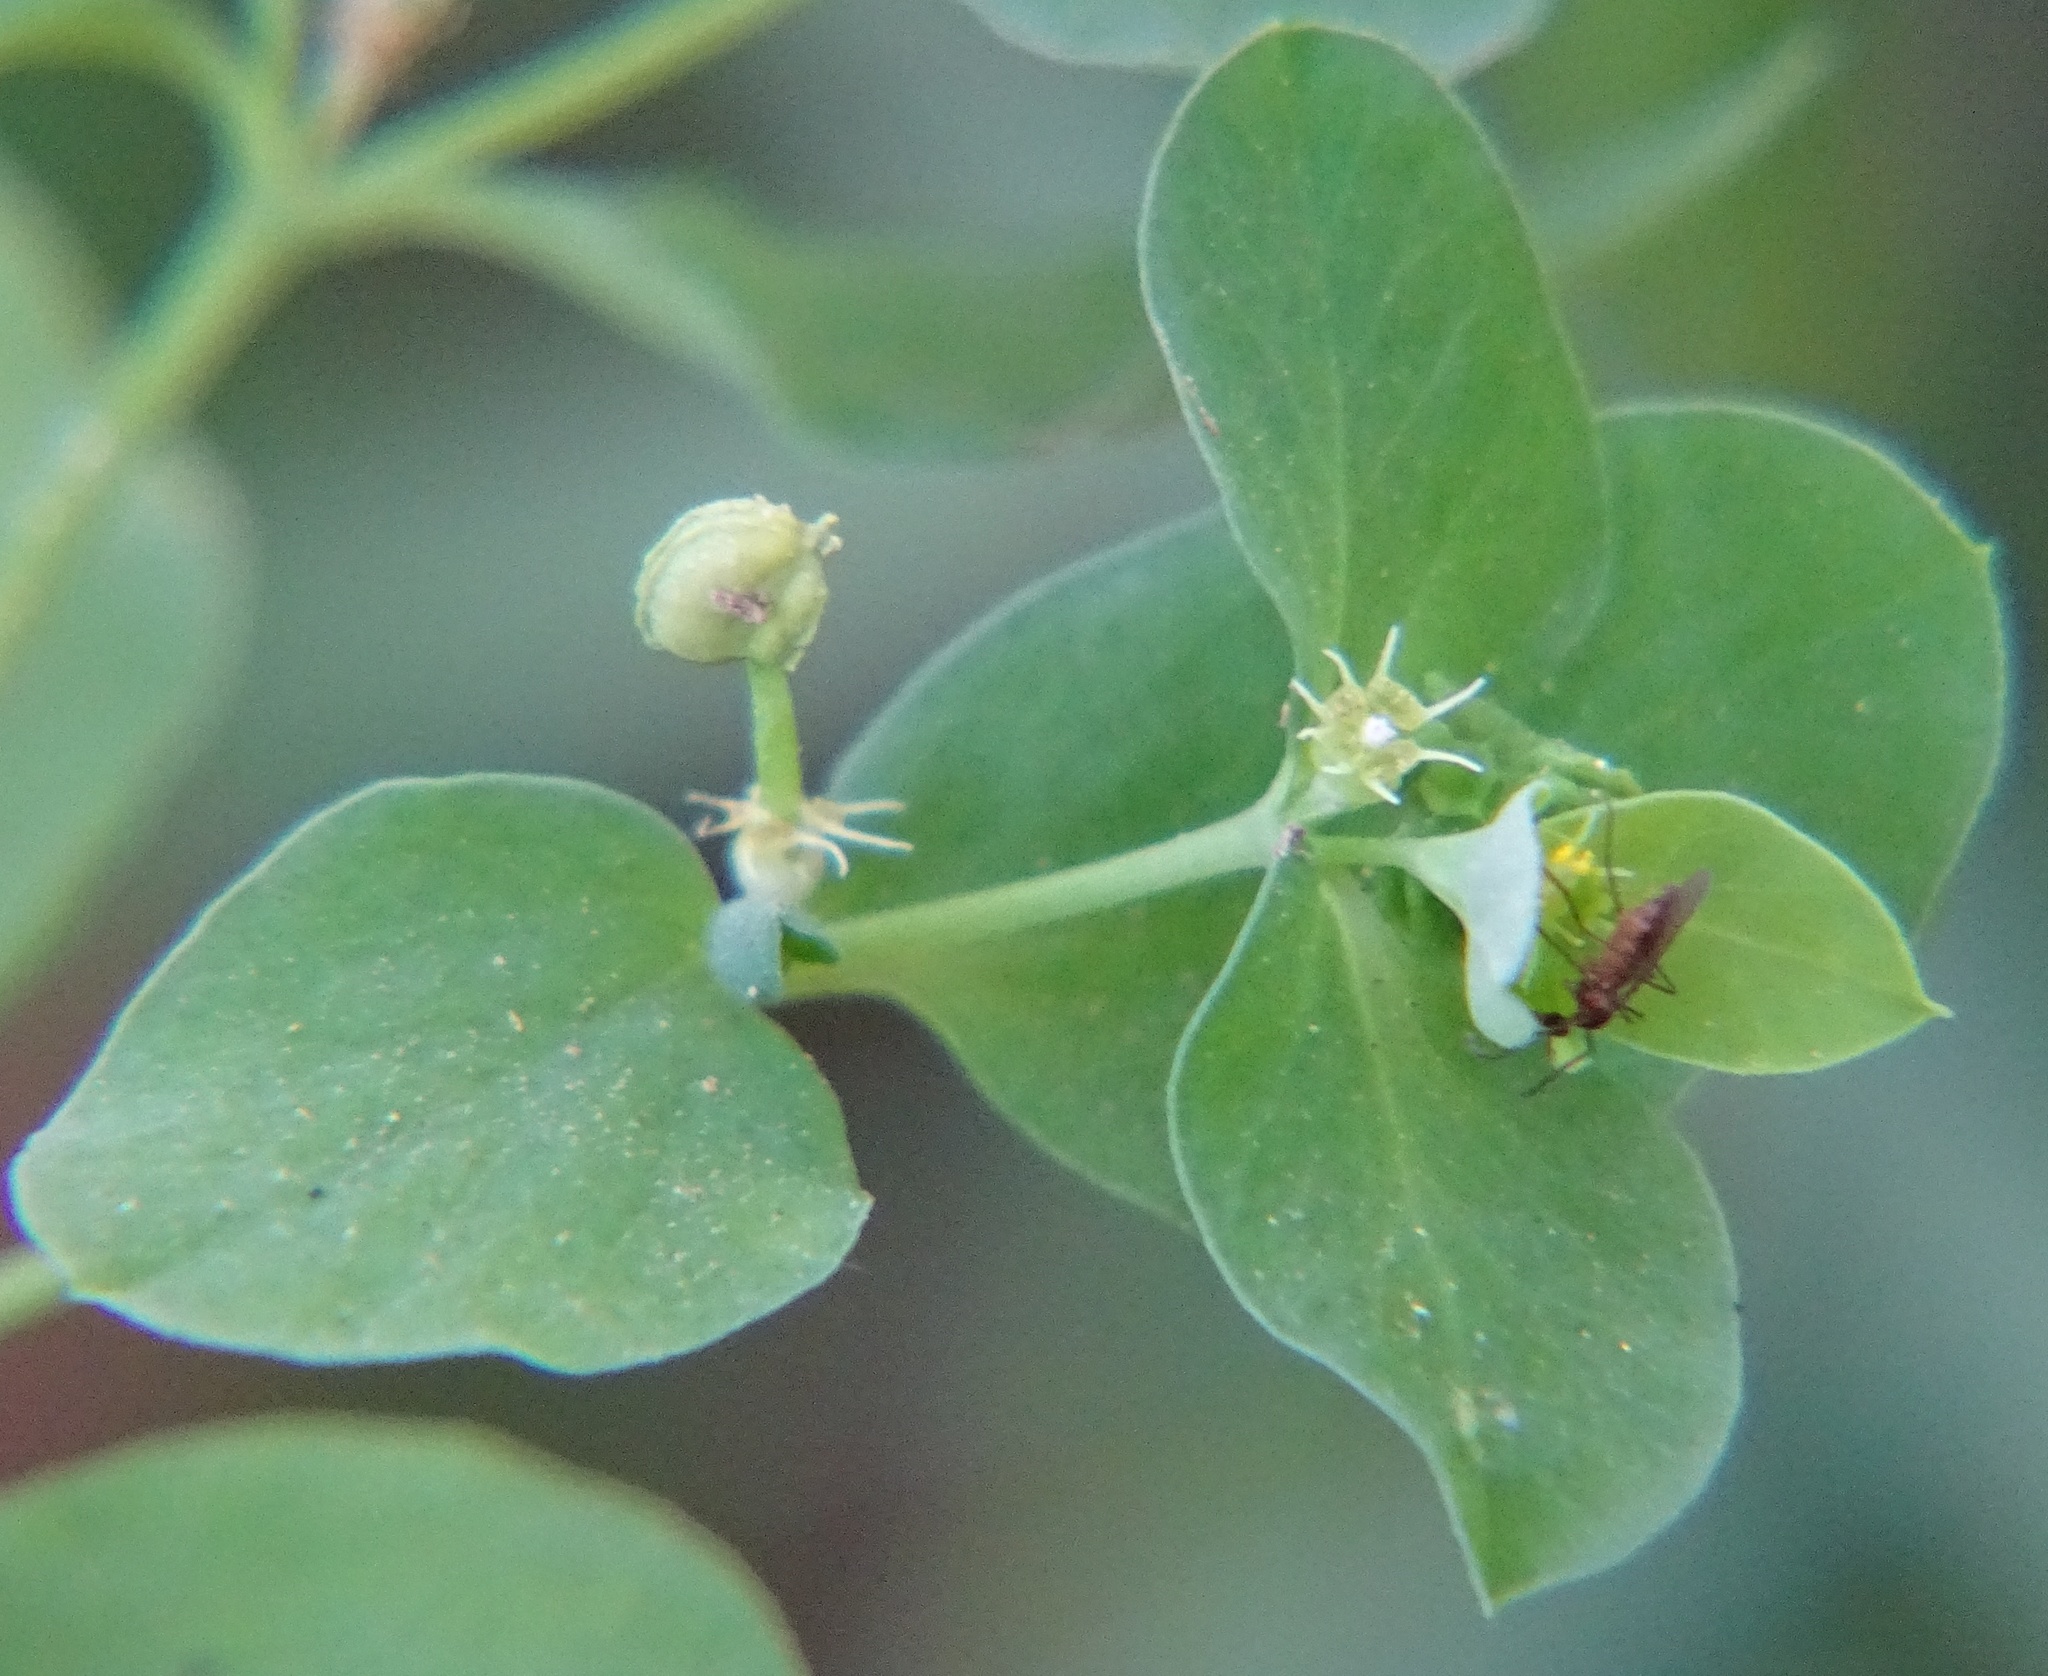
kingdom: Plantae
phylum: Tracheophyta
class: Magnoliopsida
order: Malpighiales
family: Euphorbiaceae
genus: Euphorbia
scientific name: Euphorbia peplus
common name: Petty spurge
